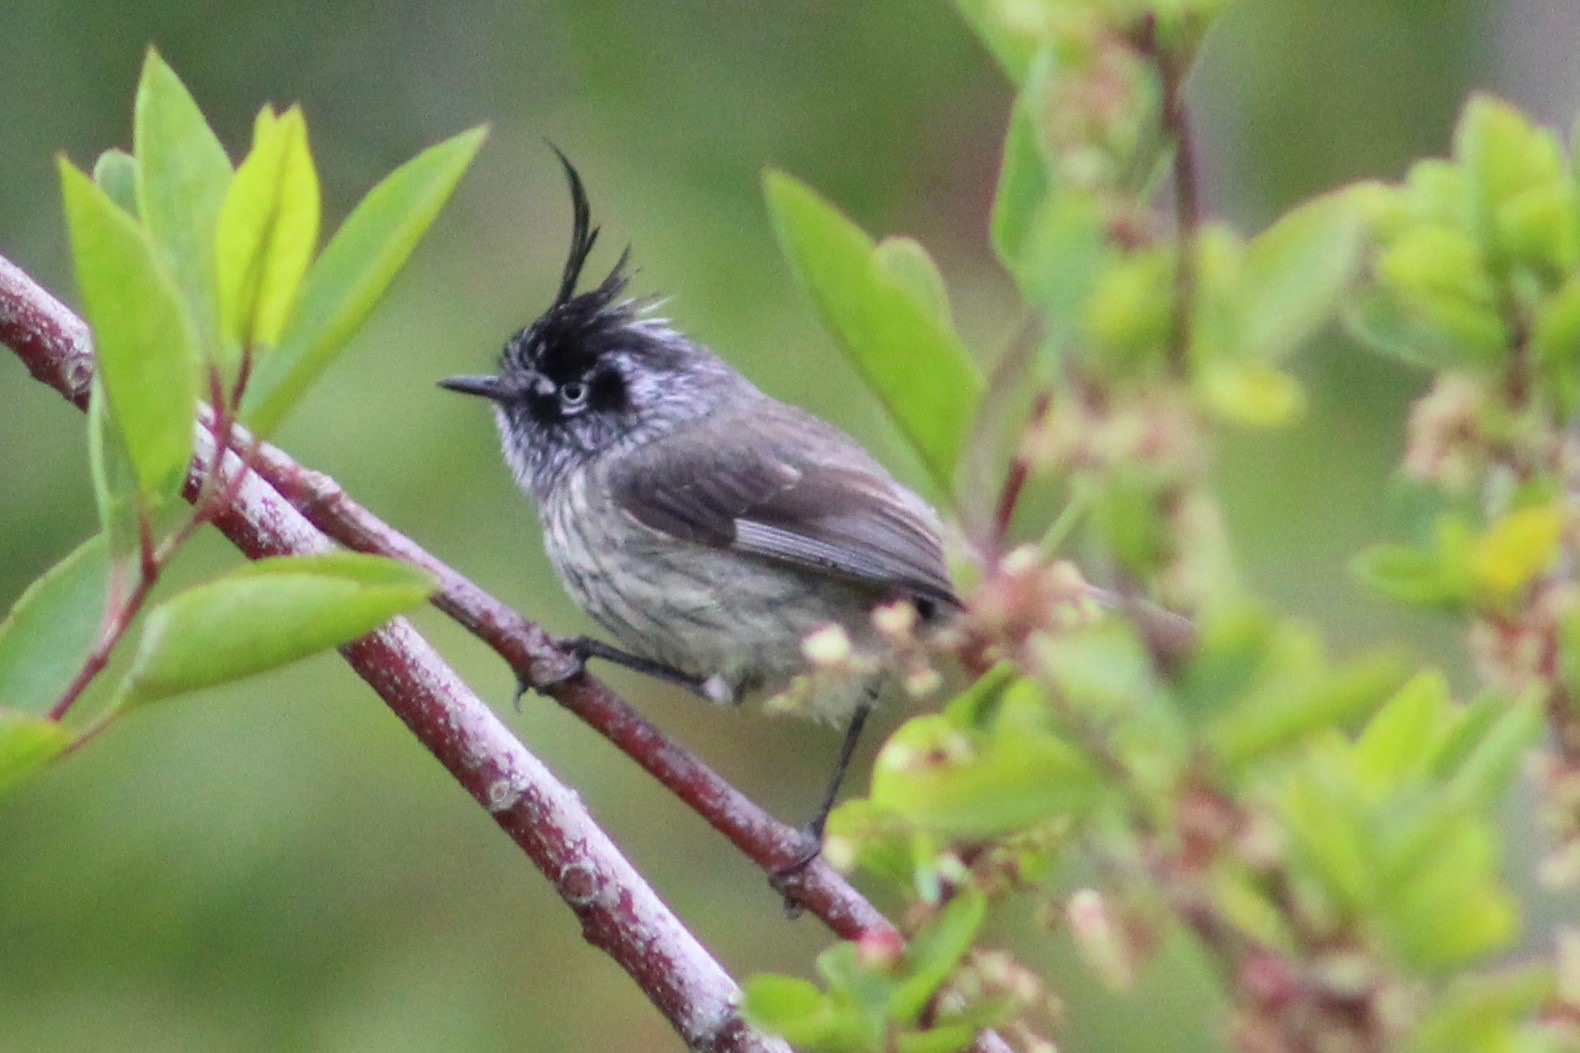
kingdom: Animalia
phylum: Chordata
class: Aves
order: Passeriformes
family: Tyrannidae
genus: Anairetes
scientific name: Anairetes parulus
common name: Tufted tit-tyrant
